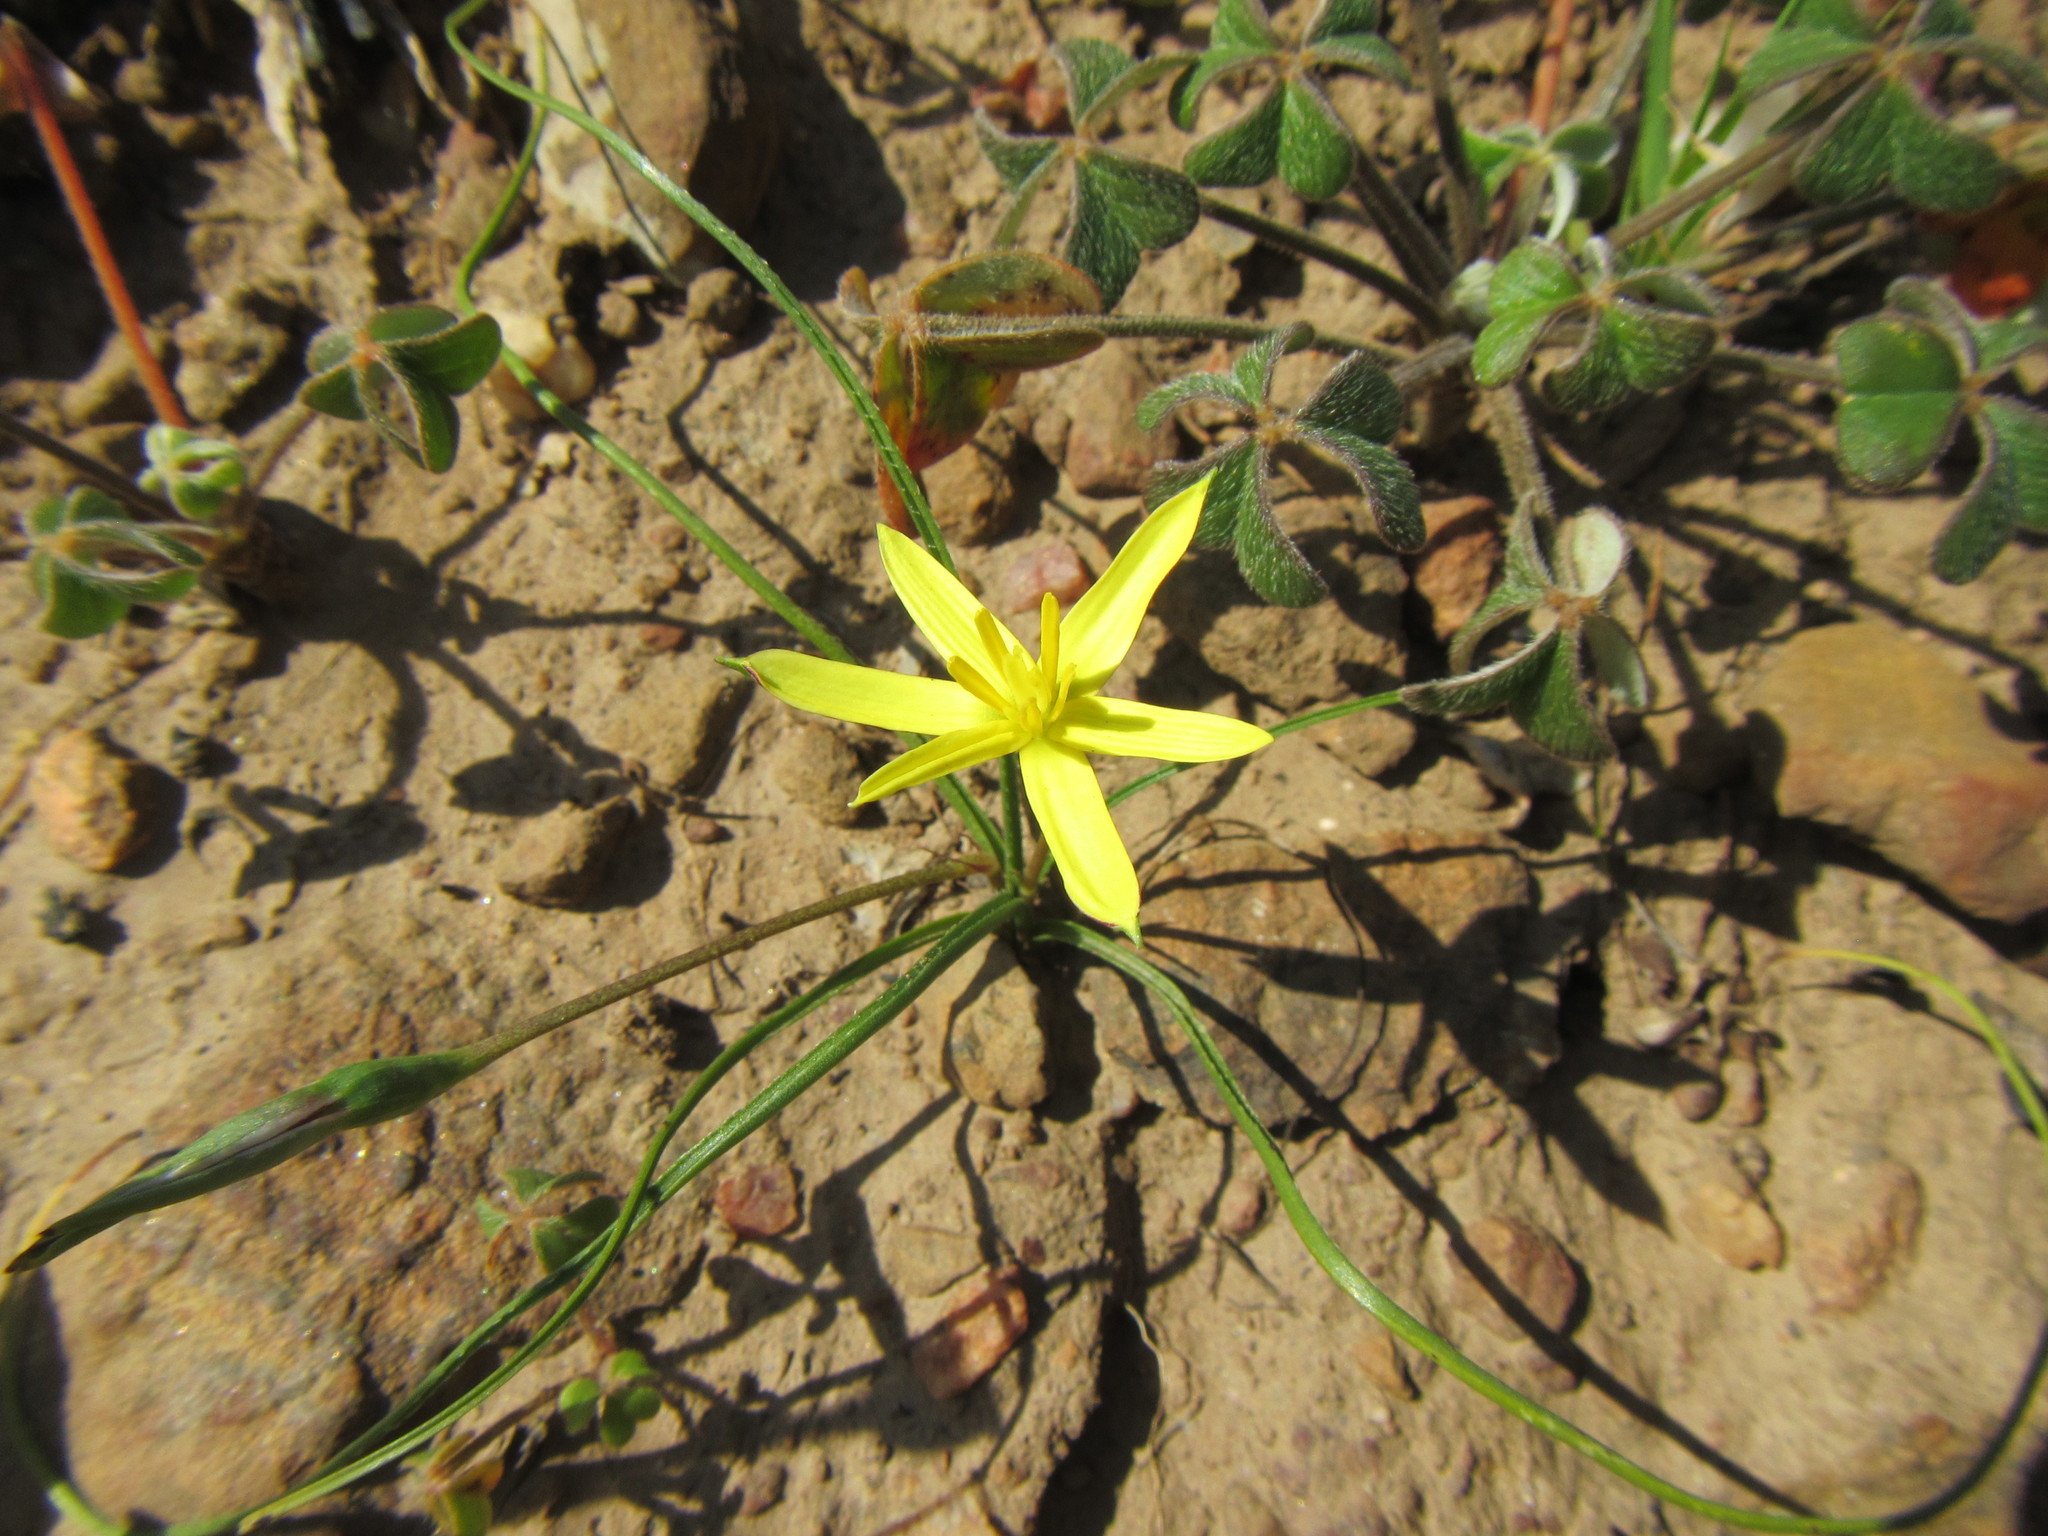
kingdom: Plantae
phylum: Tracheophyta
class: Liliopsida
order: Asparagales
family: Hypoxidaceae
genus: Pauridia
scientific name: Pauridia serrata
